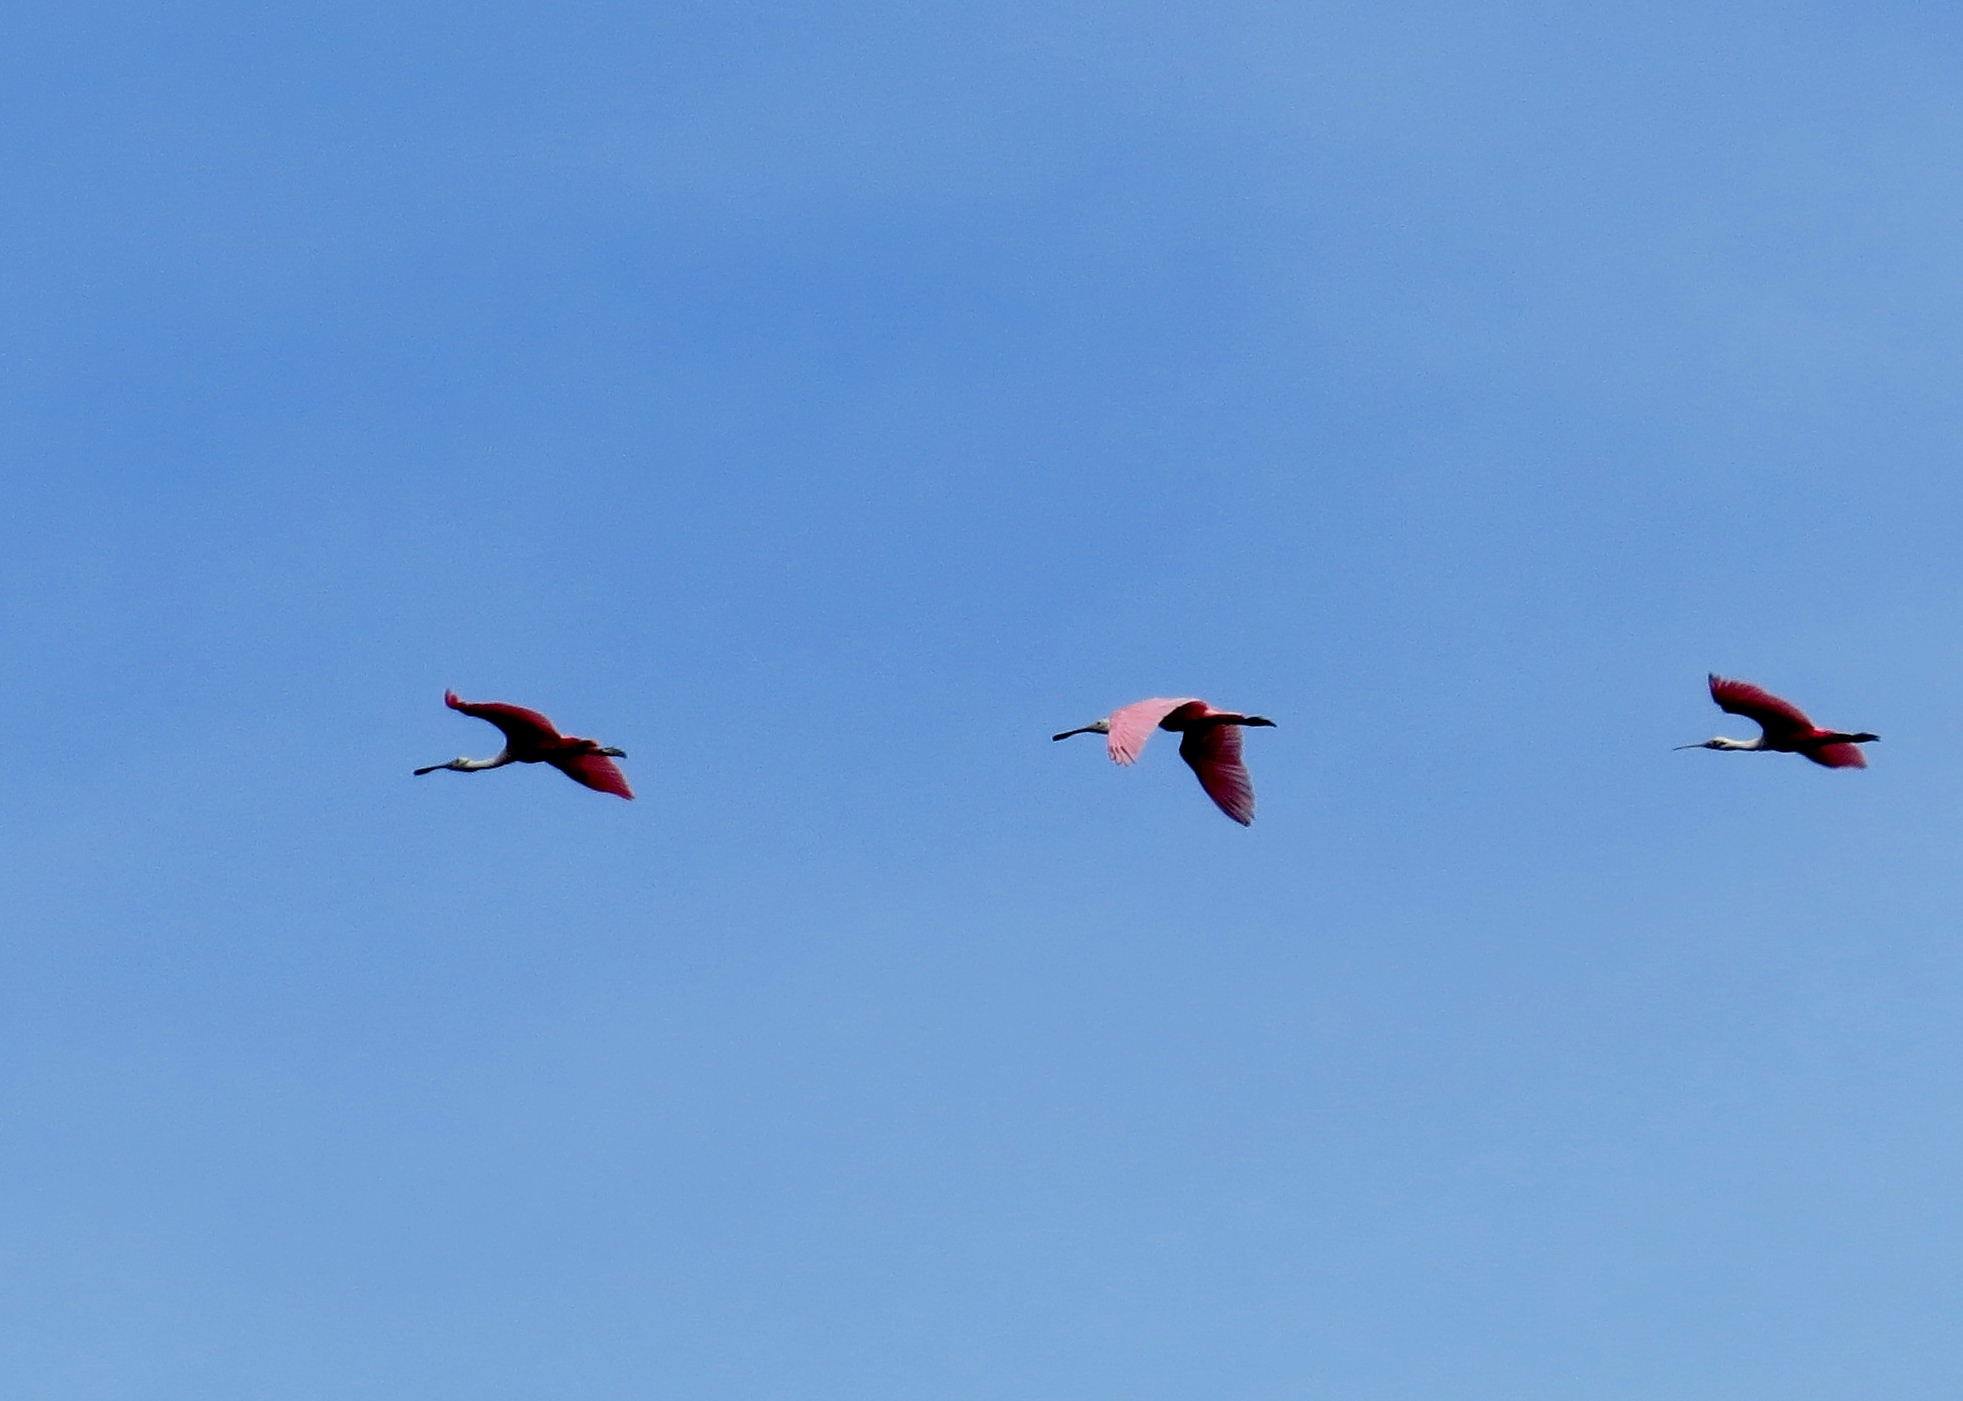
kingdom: Animalia
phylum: Chordata
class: Aves
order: Pelecaniformes
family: Threskiornithidae
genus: Platalea
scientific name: Platalea ajaja
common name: Roseate spoonbill
